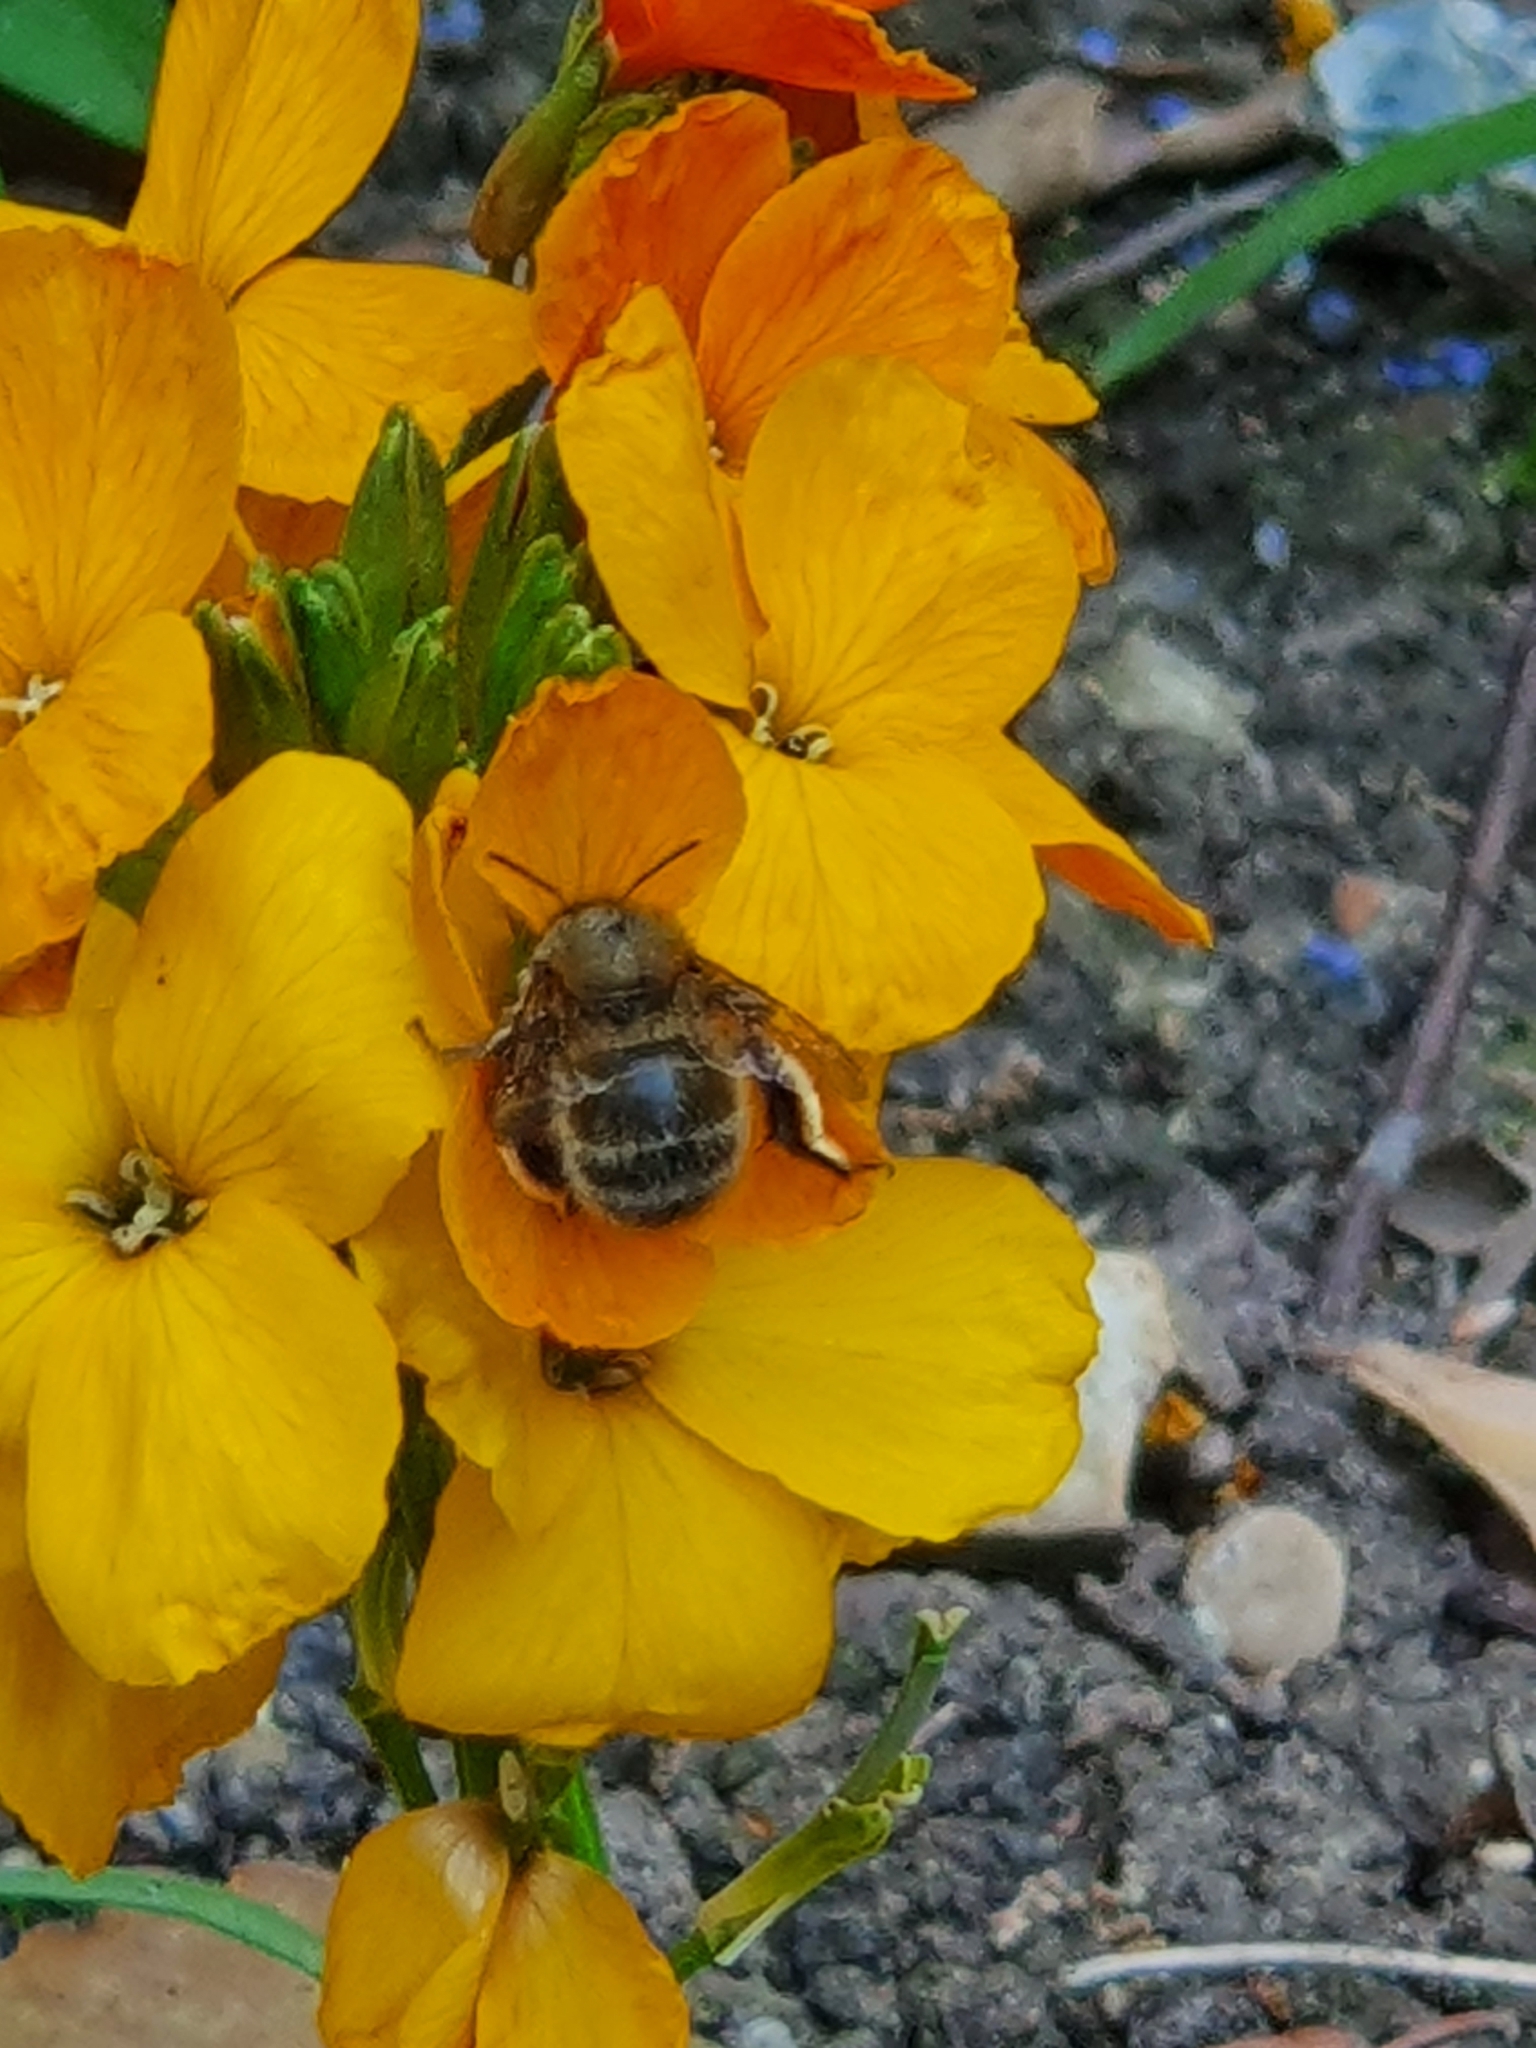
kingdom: Animalia
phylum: Arthropoda
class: Insecta
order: Hymenoptera
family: Apidae
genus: Anthophora
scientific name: Anthophora plumipes
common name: Hairy-footed flower bee
